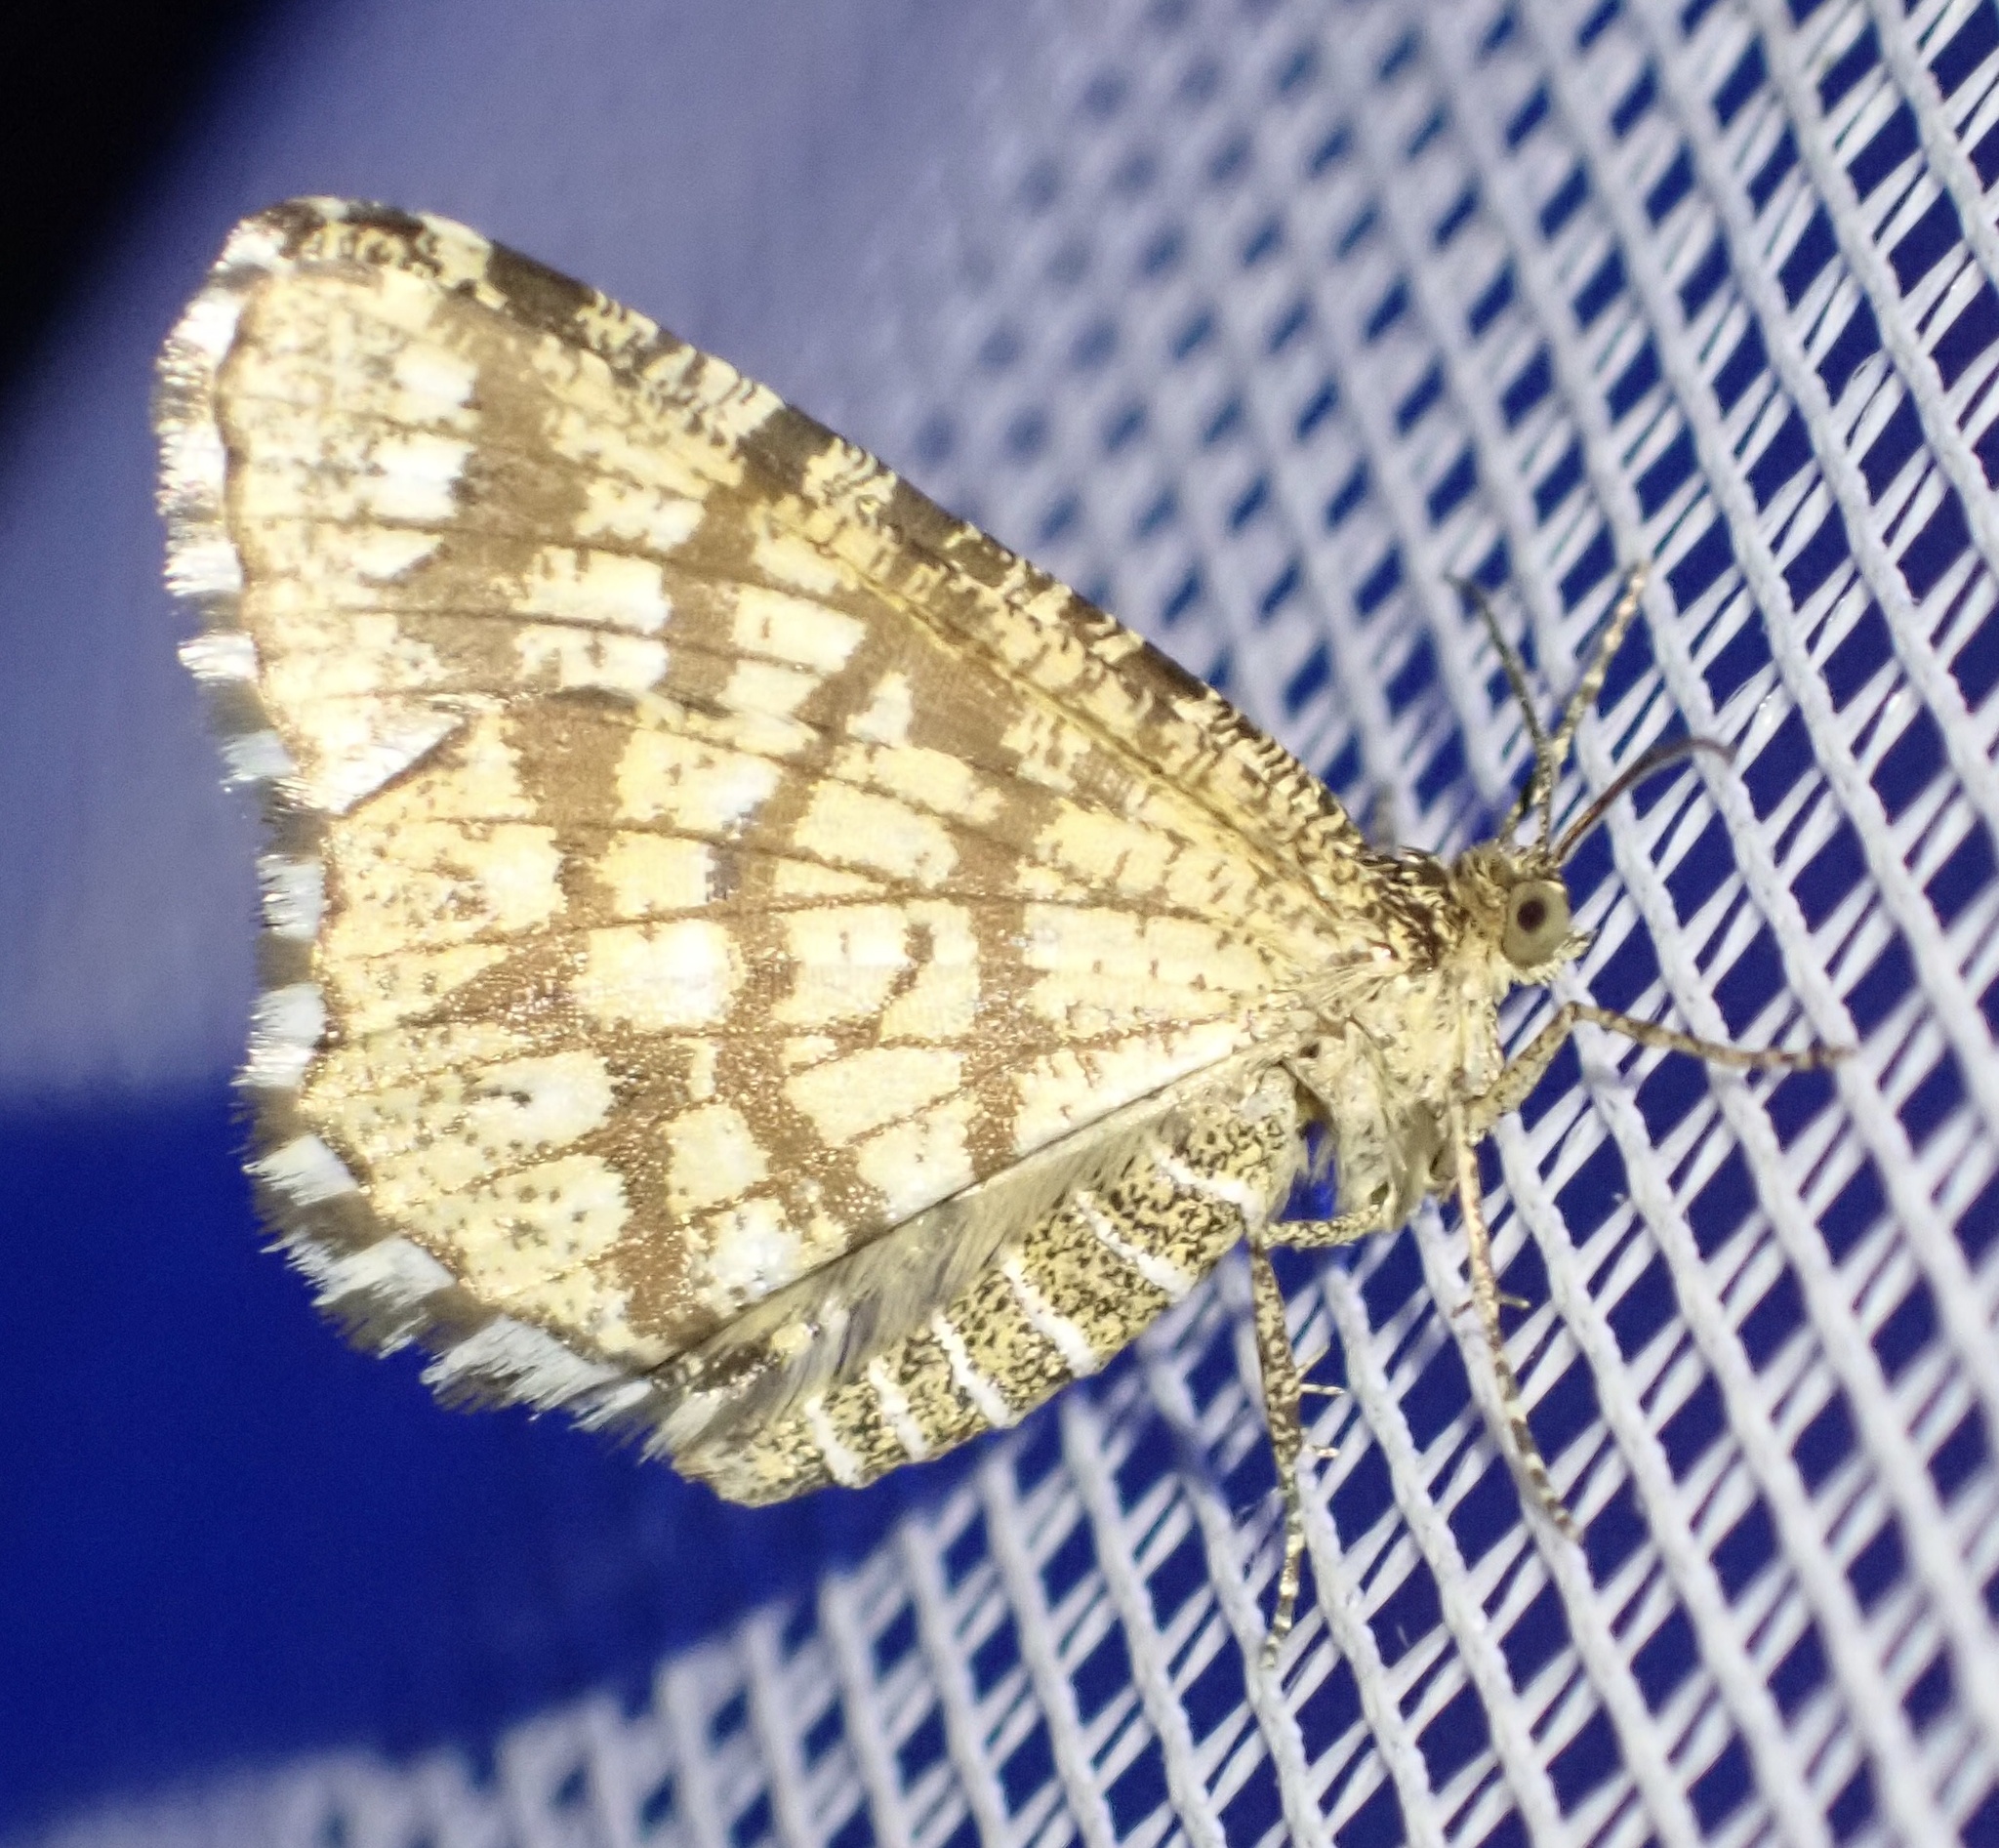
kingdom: Animalia
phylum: Arthropoda
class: Insecta
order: Lepidoptera
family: Geometridae
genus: Chiasmia
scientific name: Chiasmia clathrata
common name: Latticed heath
